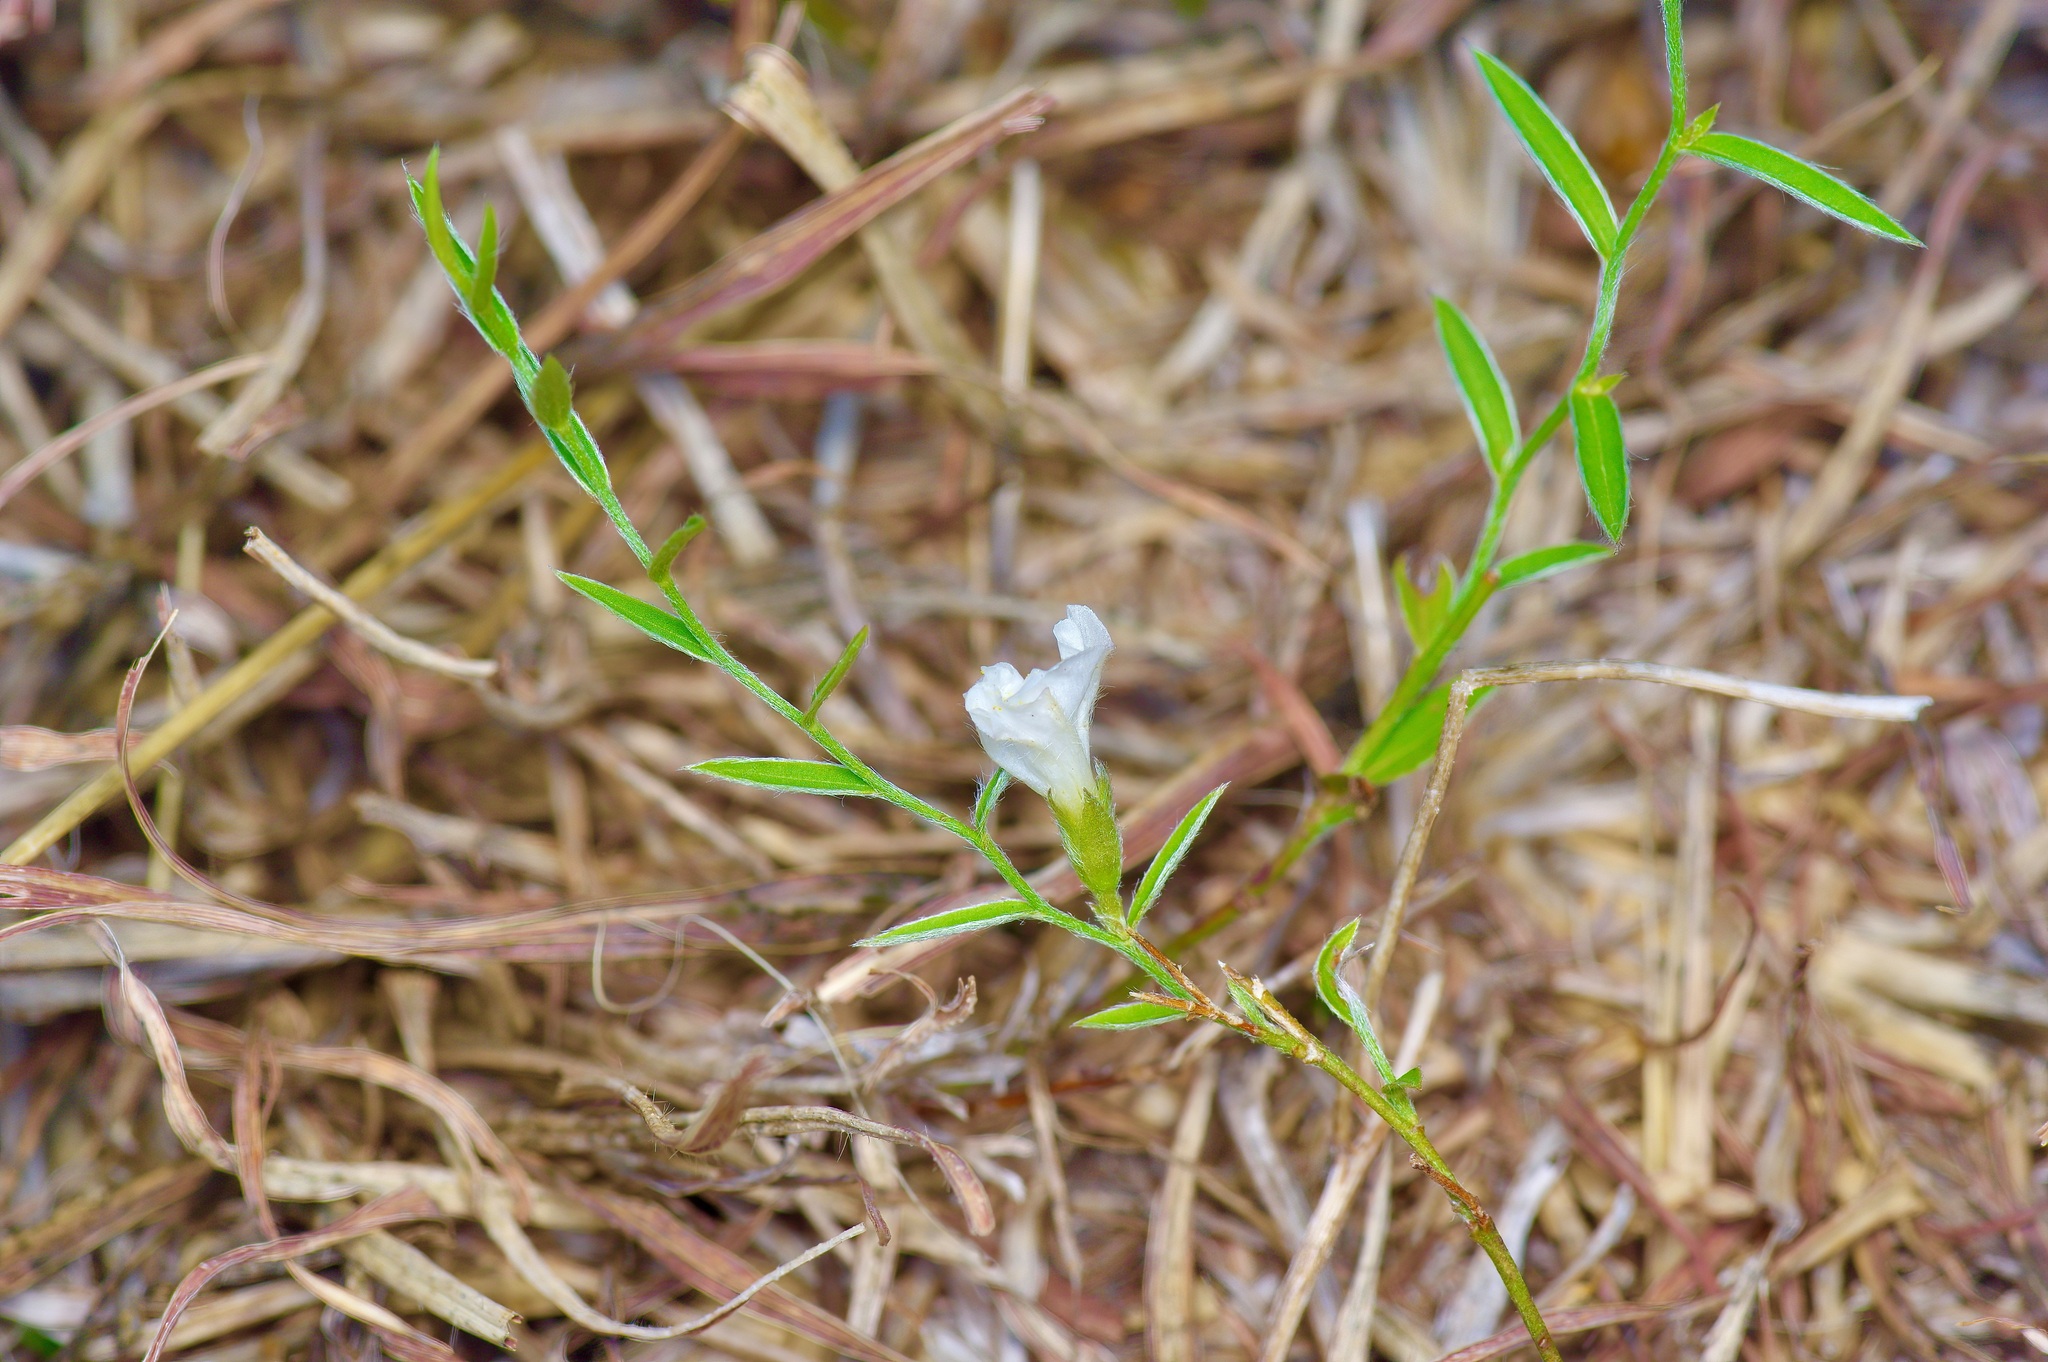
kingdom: Plantae
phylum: Tracheophyta
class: Magnoliopsida
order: Solanales
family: Convolvulaceae
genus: Evolvulus
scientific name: Evolvulus sericeus
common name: Blue dots
